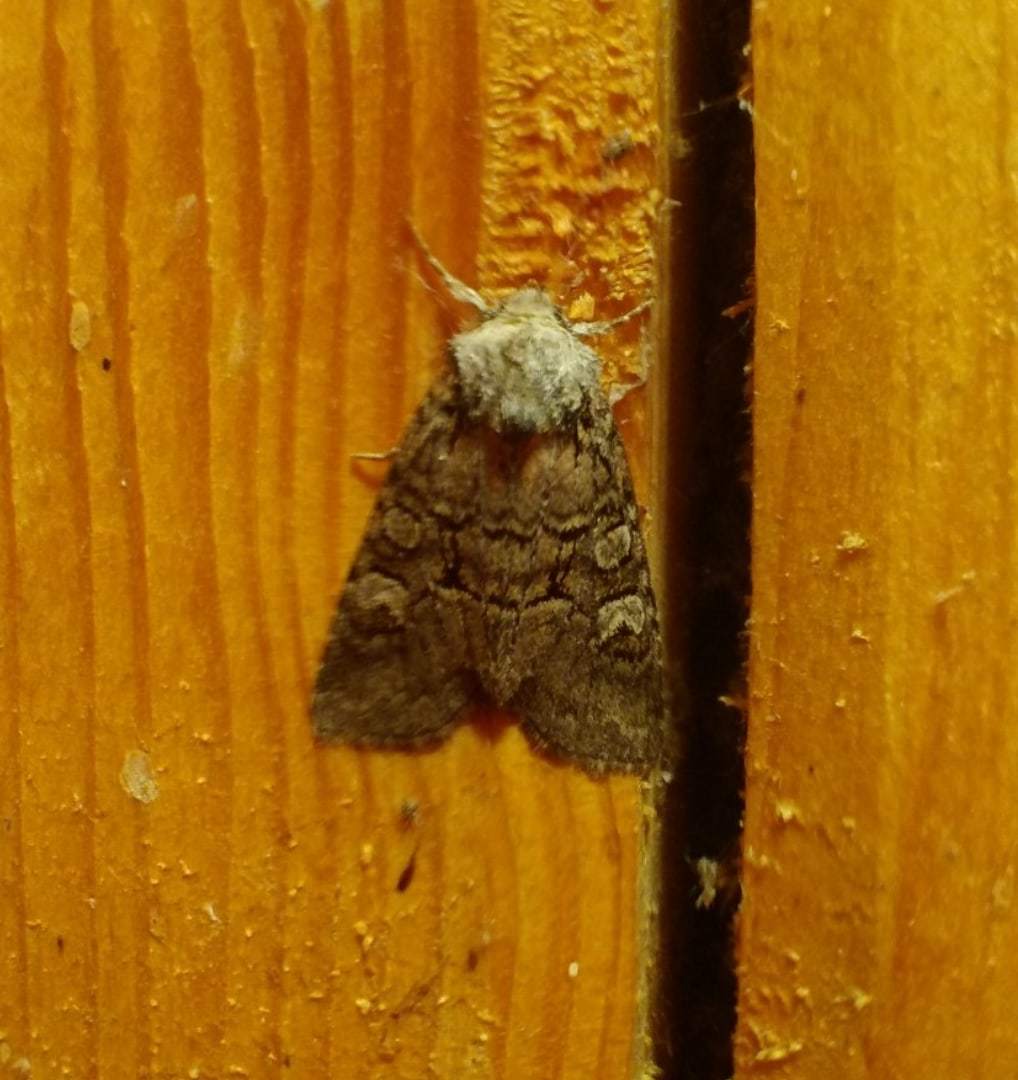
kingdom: Animalia
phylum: Arthropoda
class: Insecta
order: Lepidoptera
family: Noctuidae
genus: Brachylomia
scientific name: Brachylomia viminalis
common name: Minor shoulder-knot
